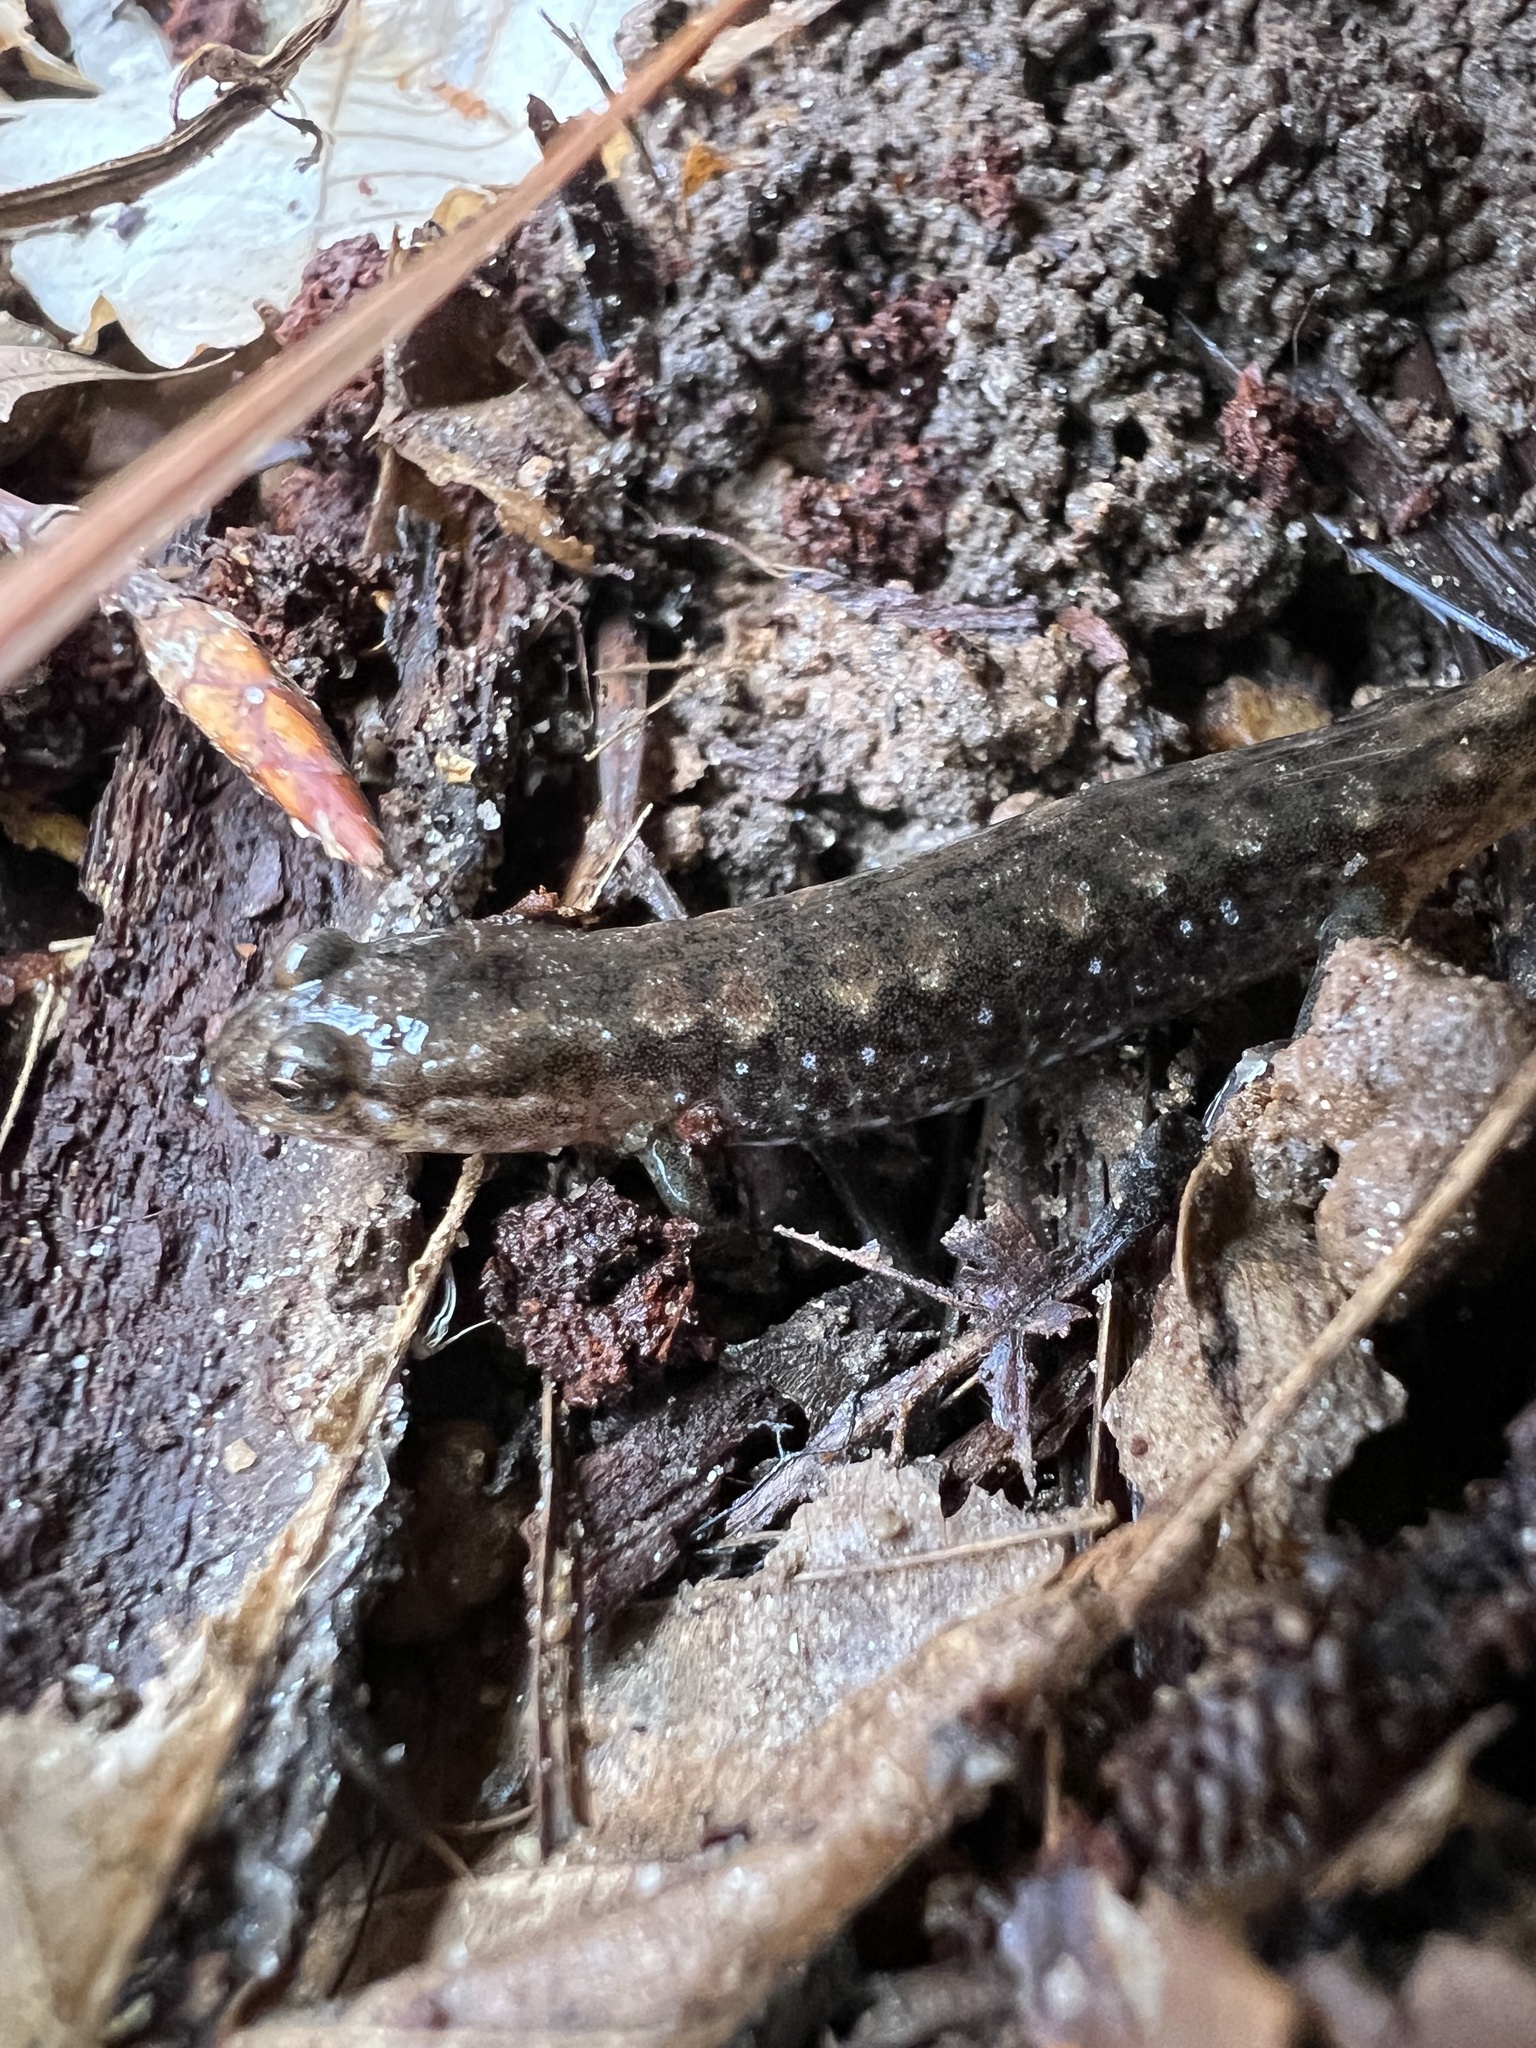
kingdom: Animalia
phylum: Chordata
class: Amphibia
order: Caudata
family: Plethodontidae
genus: Desmognathus
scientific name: Desmognathus
